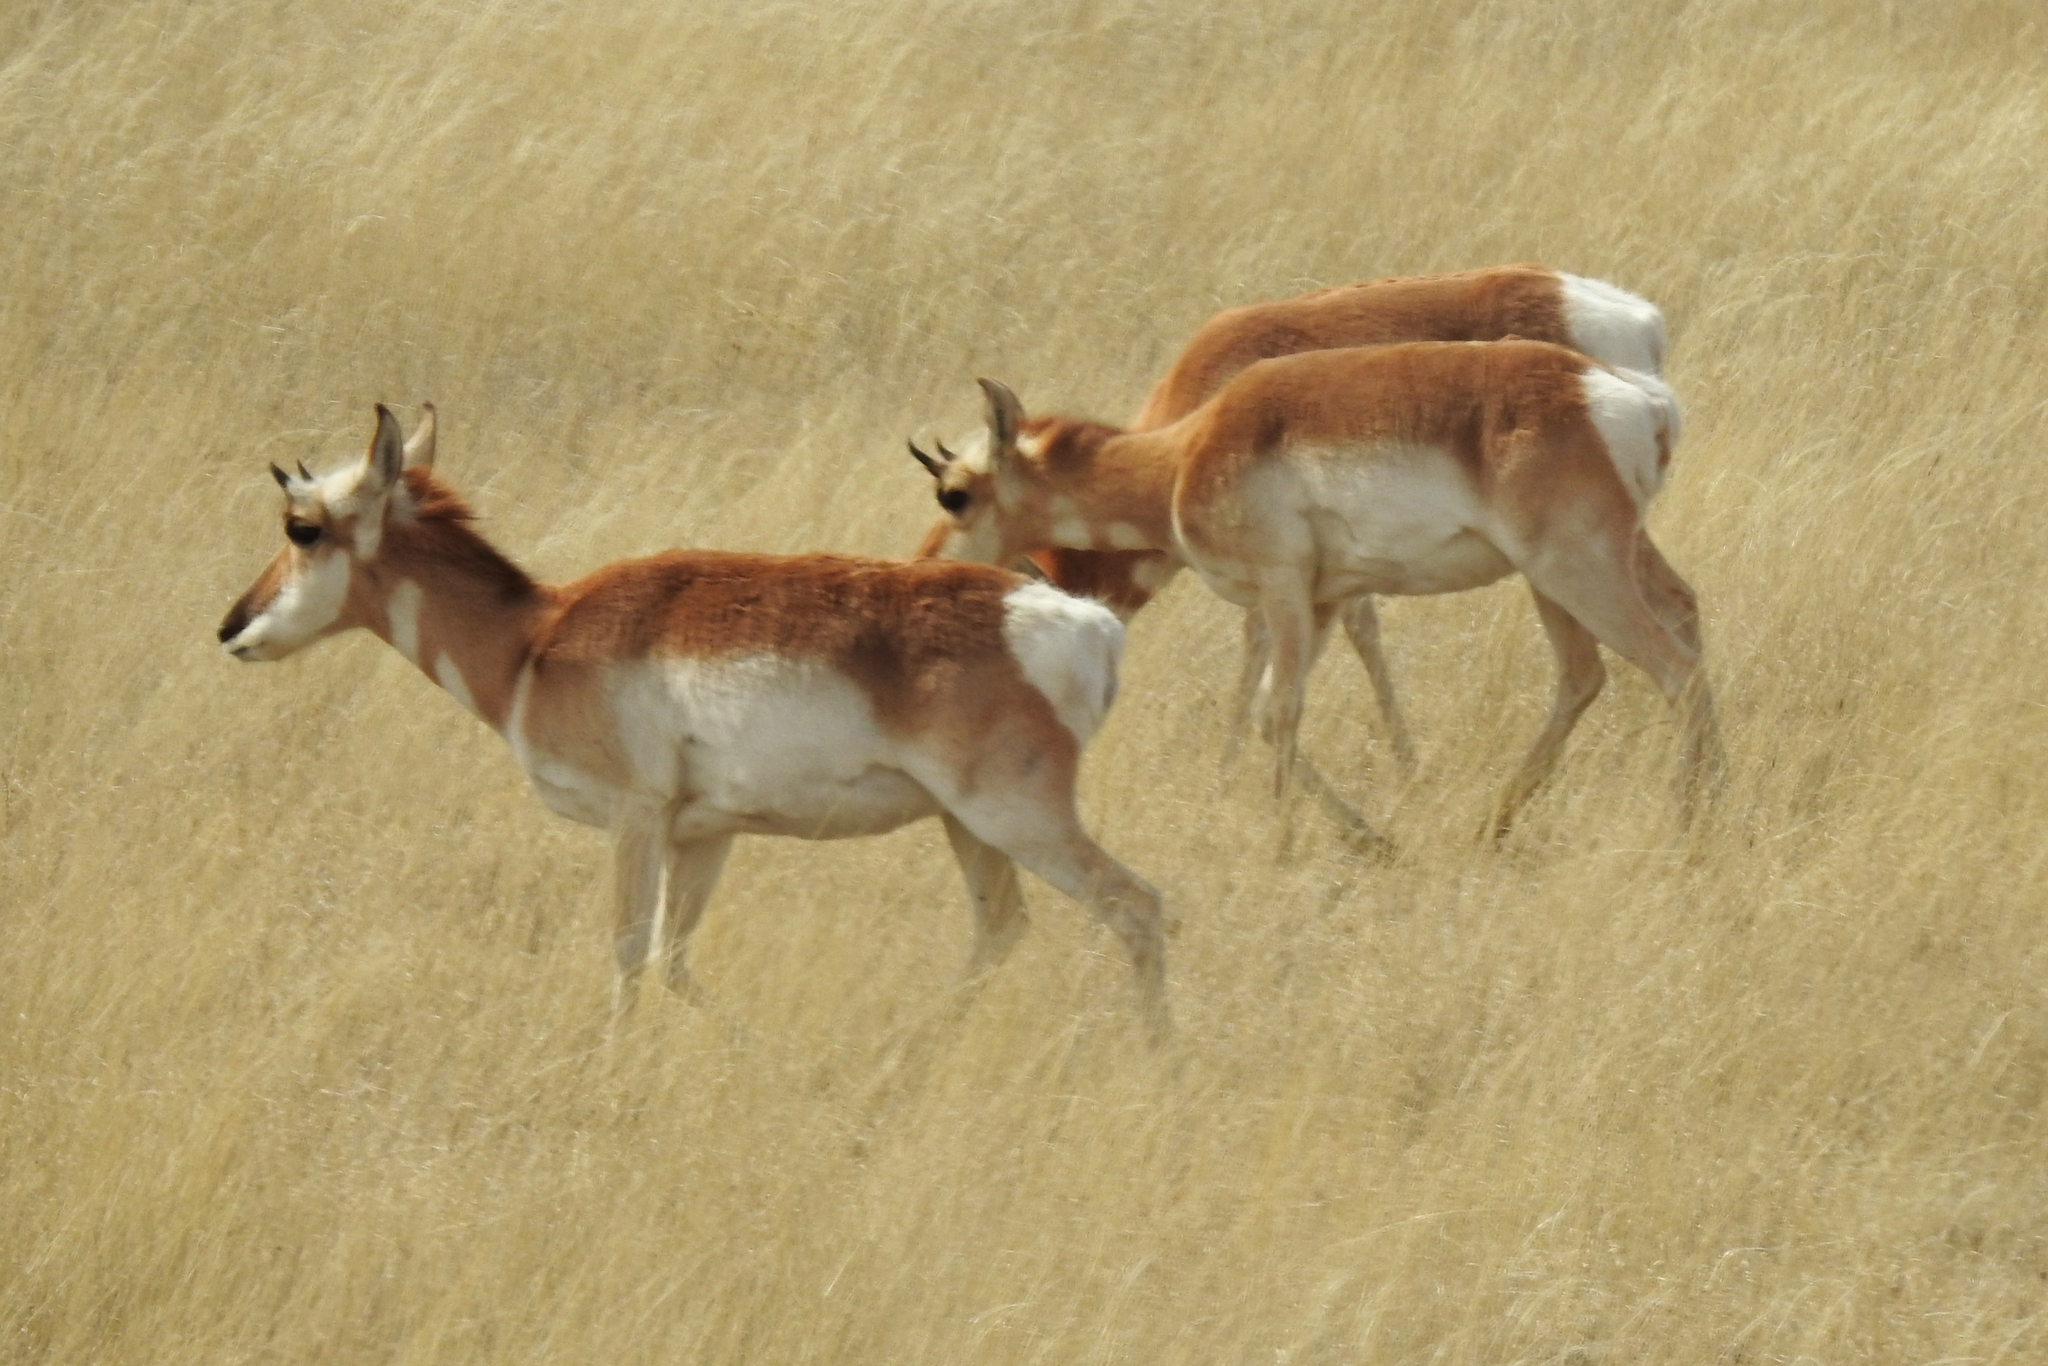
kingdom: Animalia
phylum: Chordata
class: Mammalia
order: Artiodactyla
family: Antilocapridae
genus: Antilocapra
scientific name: Antilocapra americana
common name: Pronghorn
